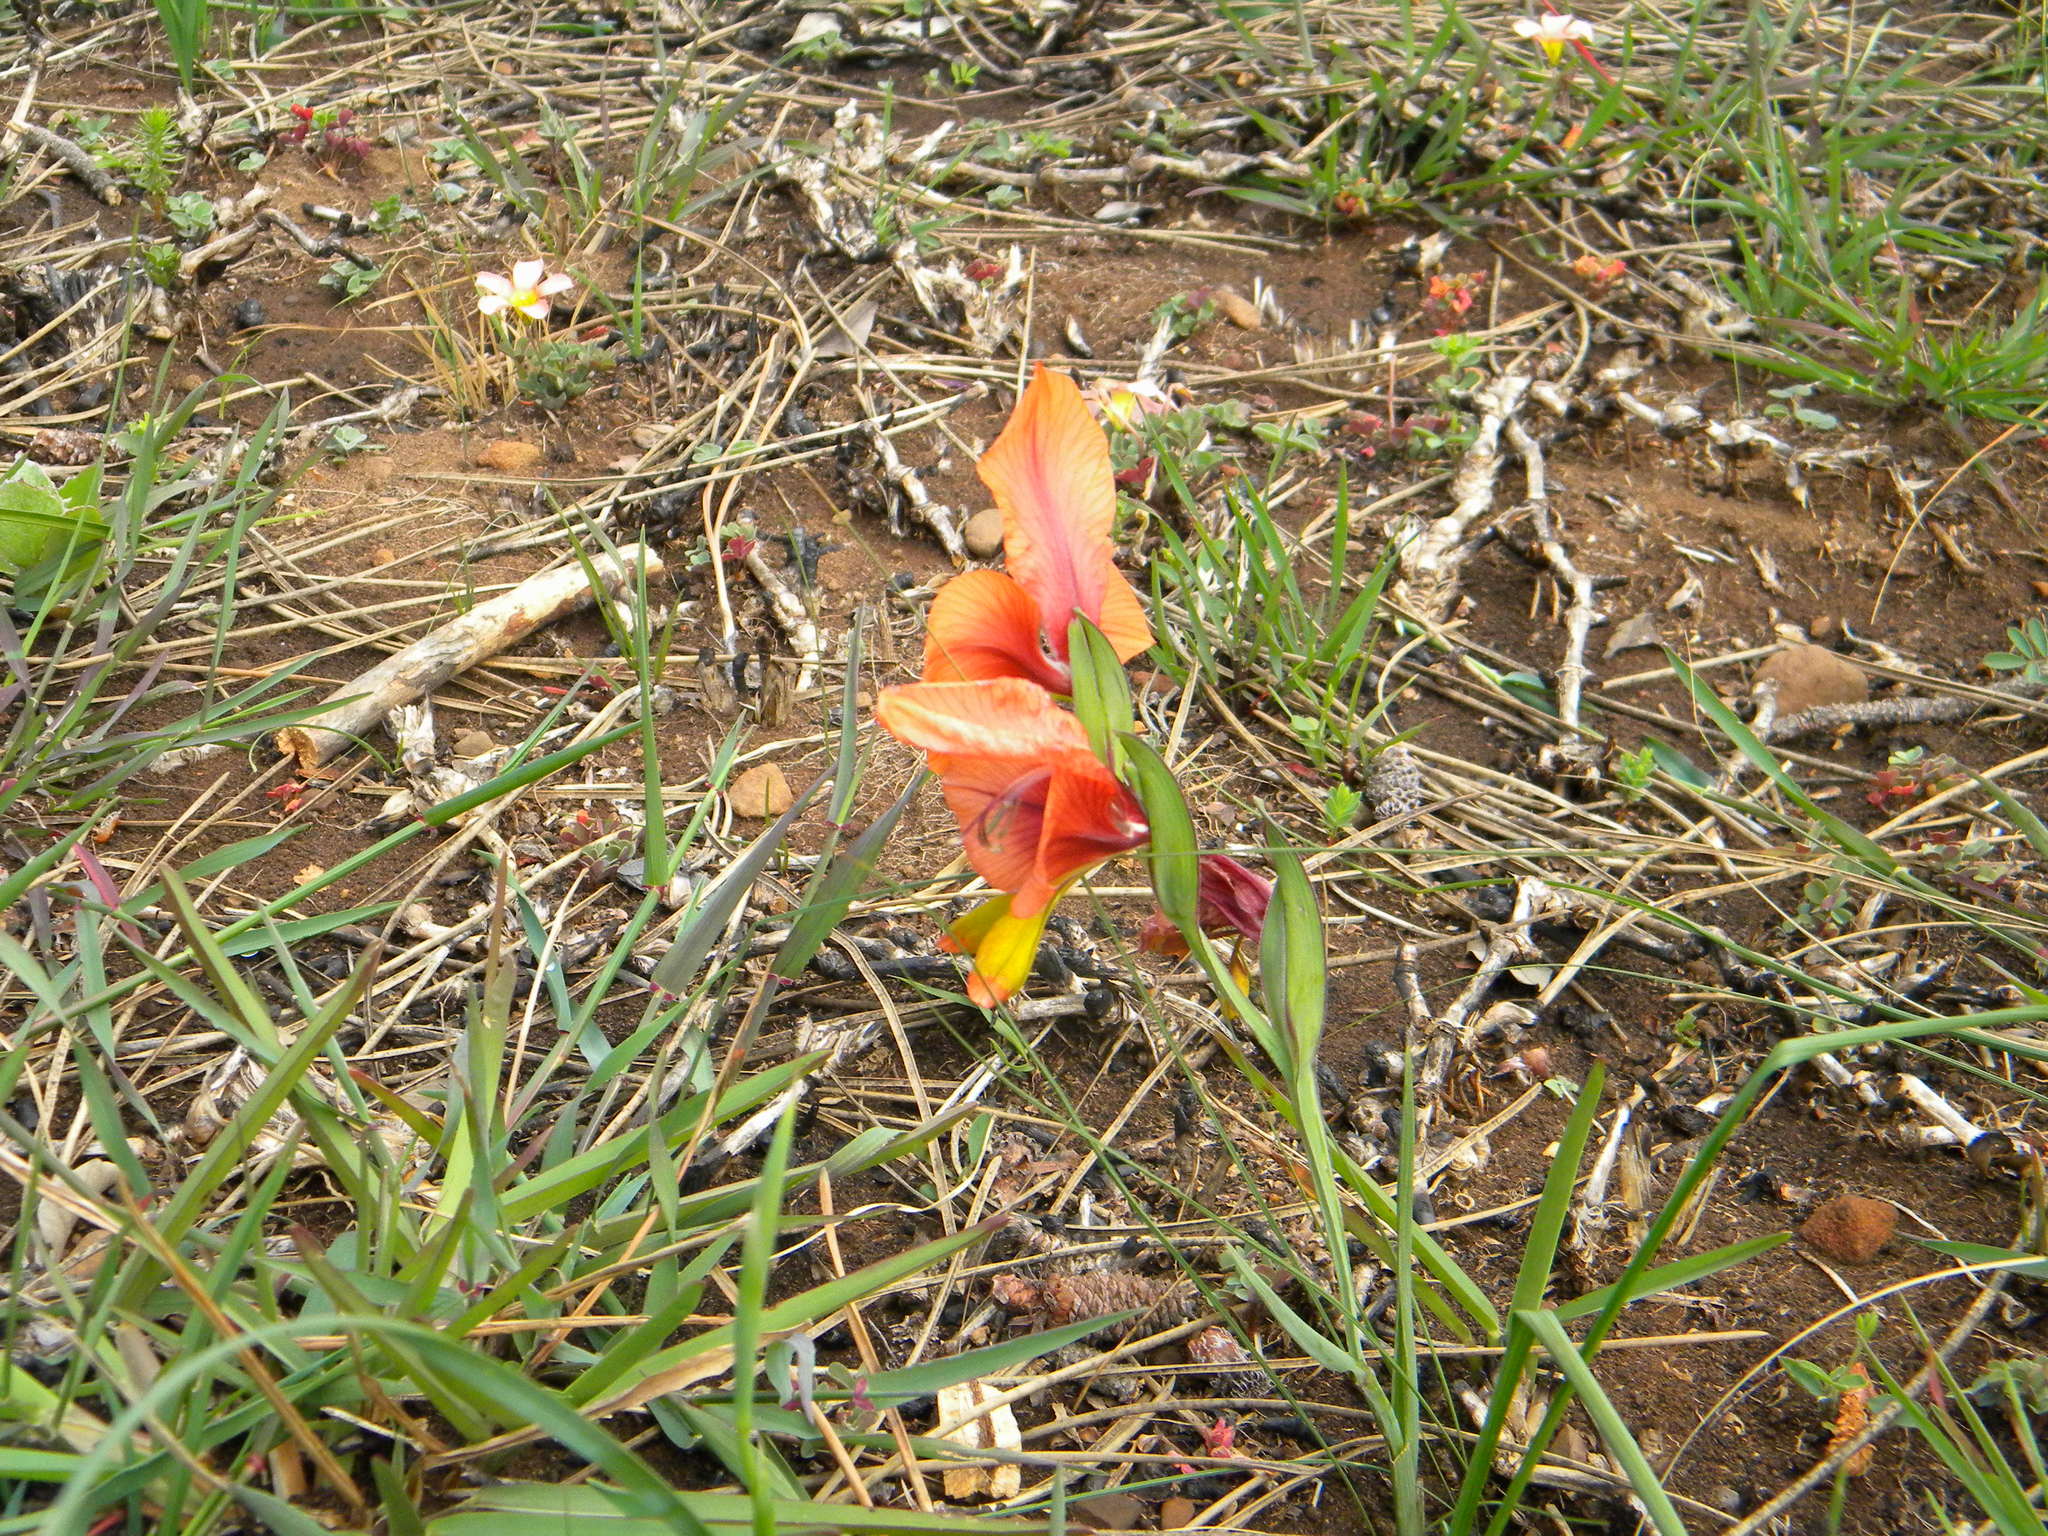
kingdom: Plantae
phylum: Tracheophyta
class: Liliopsida
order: Asparagales
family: Iridaceae
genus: Gladiolus
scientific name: Gladiolus alatus
